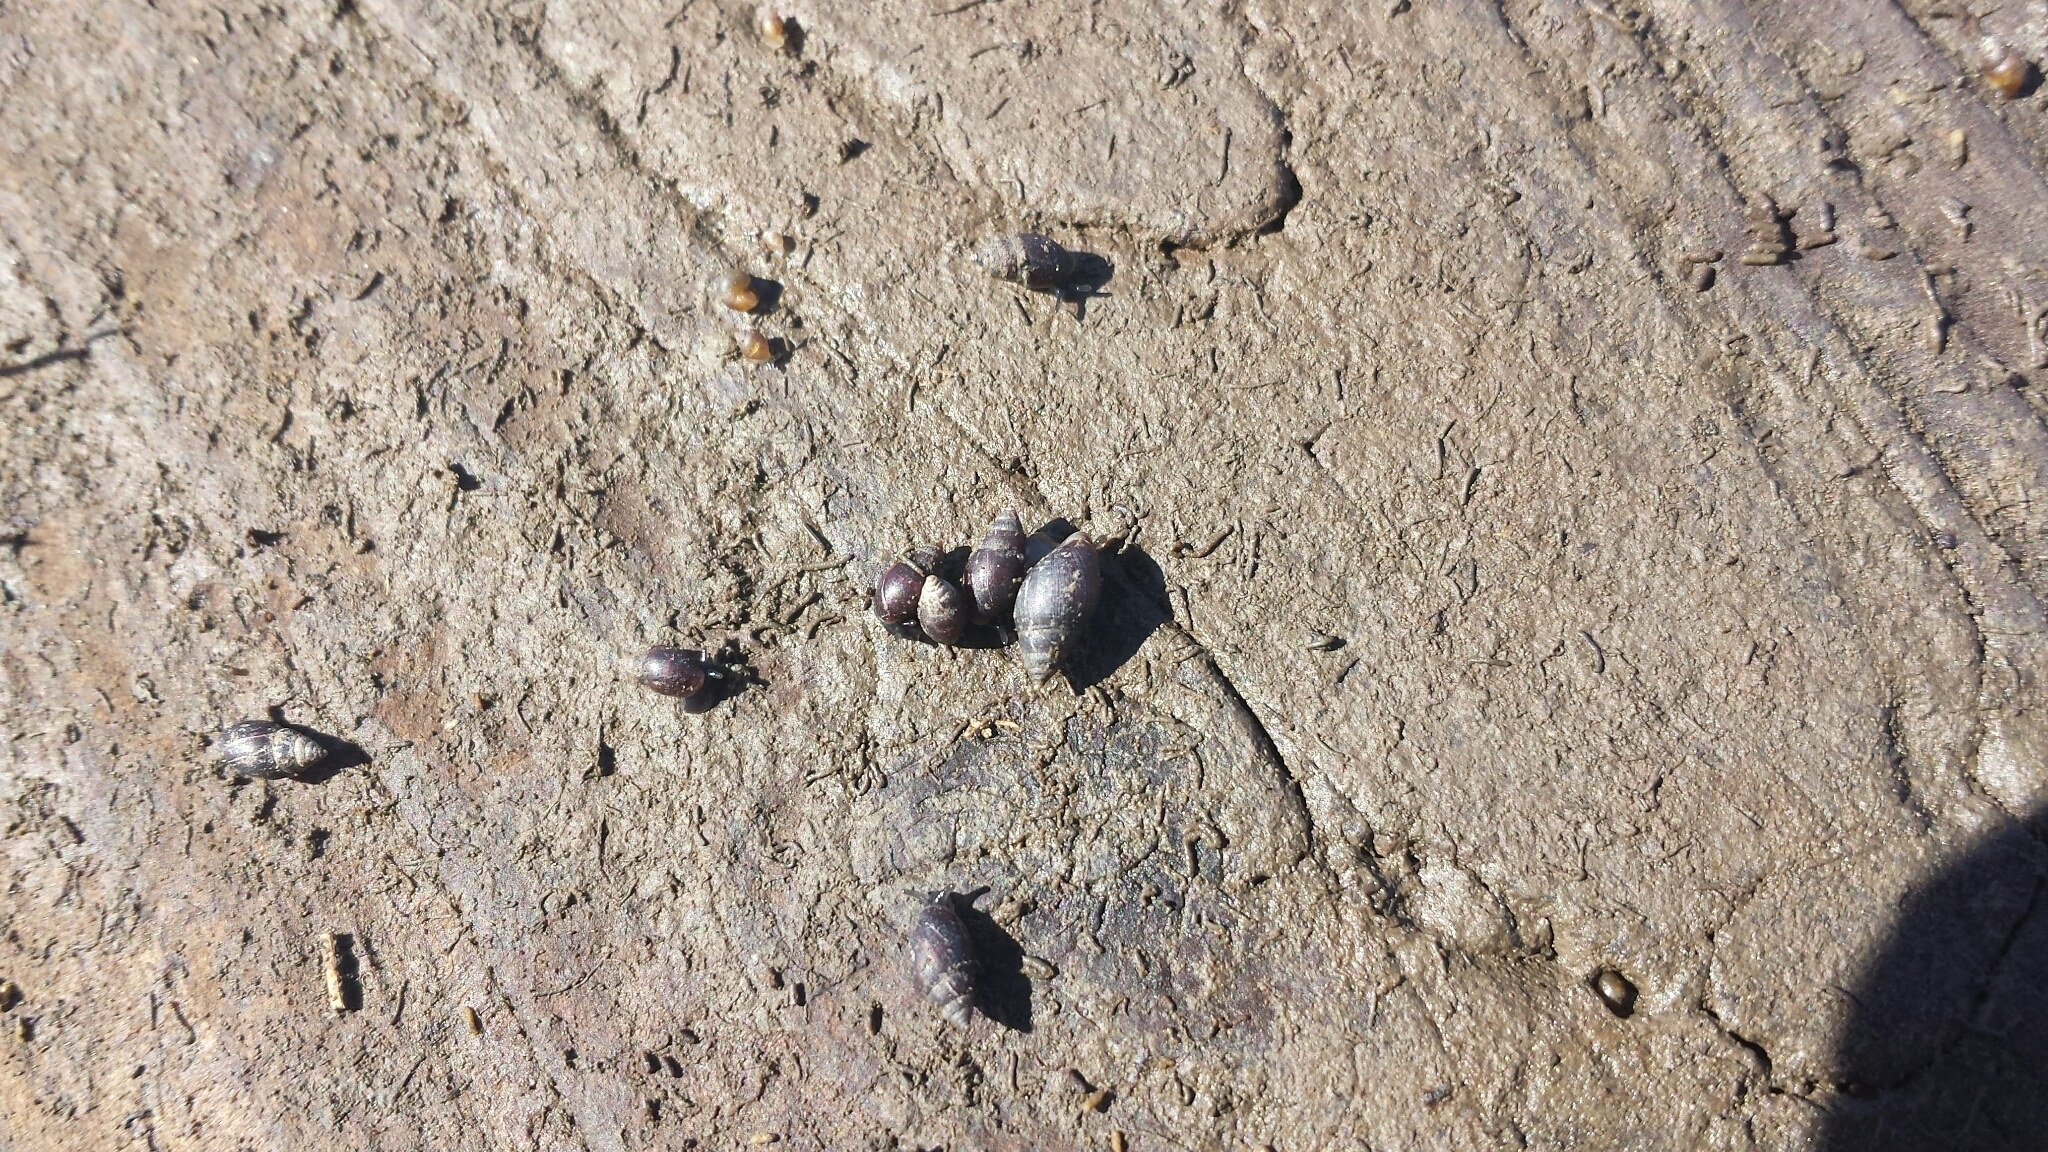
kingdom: Animalia
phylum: Mollusca
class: Gastropoda
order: Ellobiida
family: Ellobiidae
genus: Myosotella
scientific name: Myosotella myosotis
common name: Mouse-eared snail
